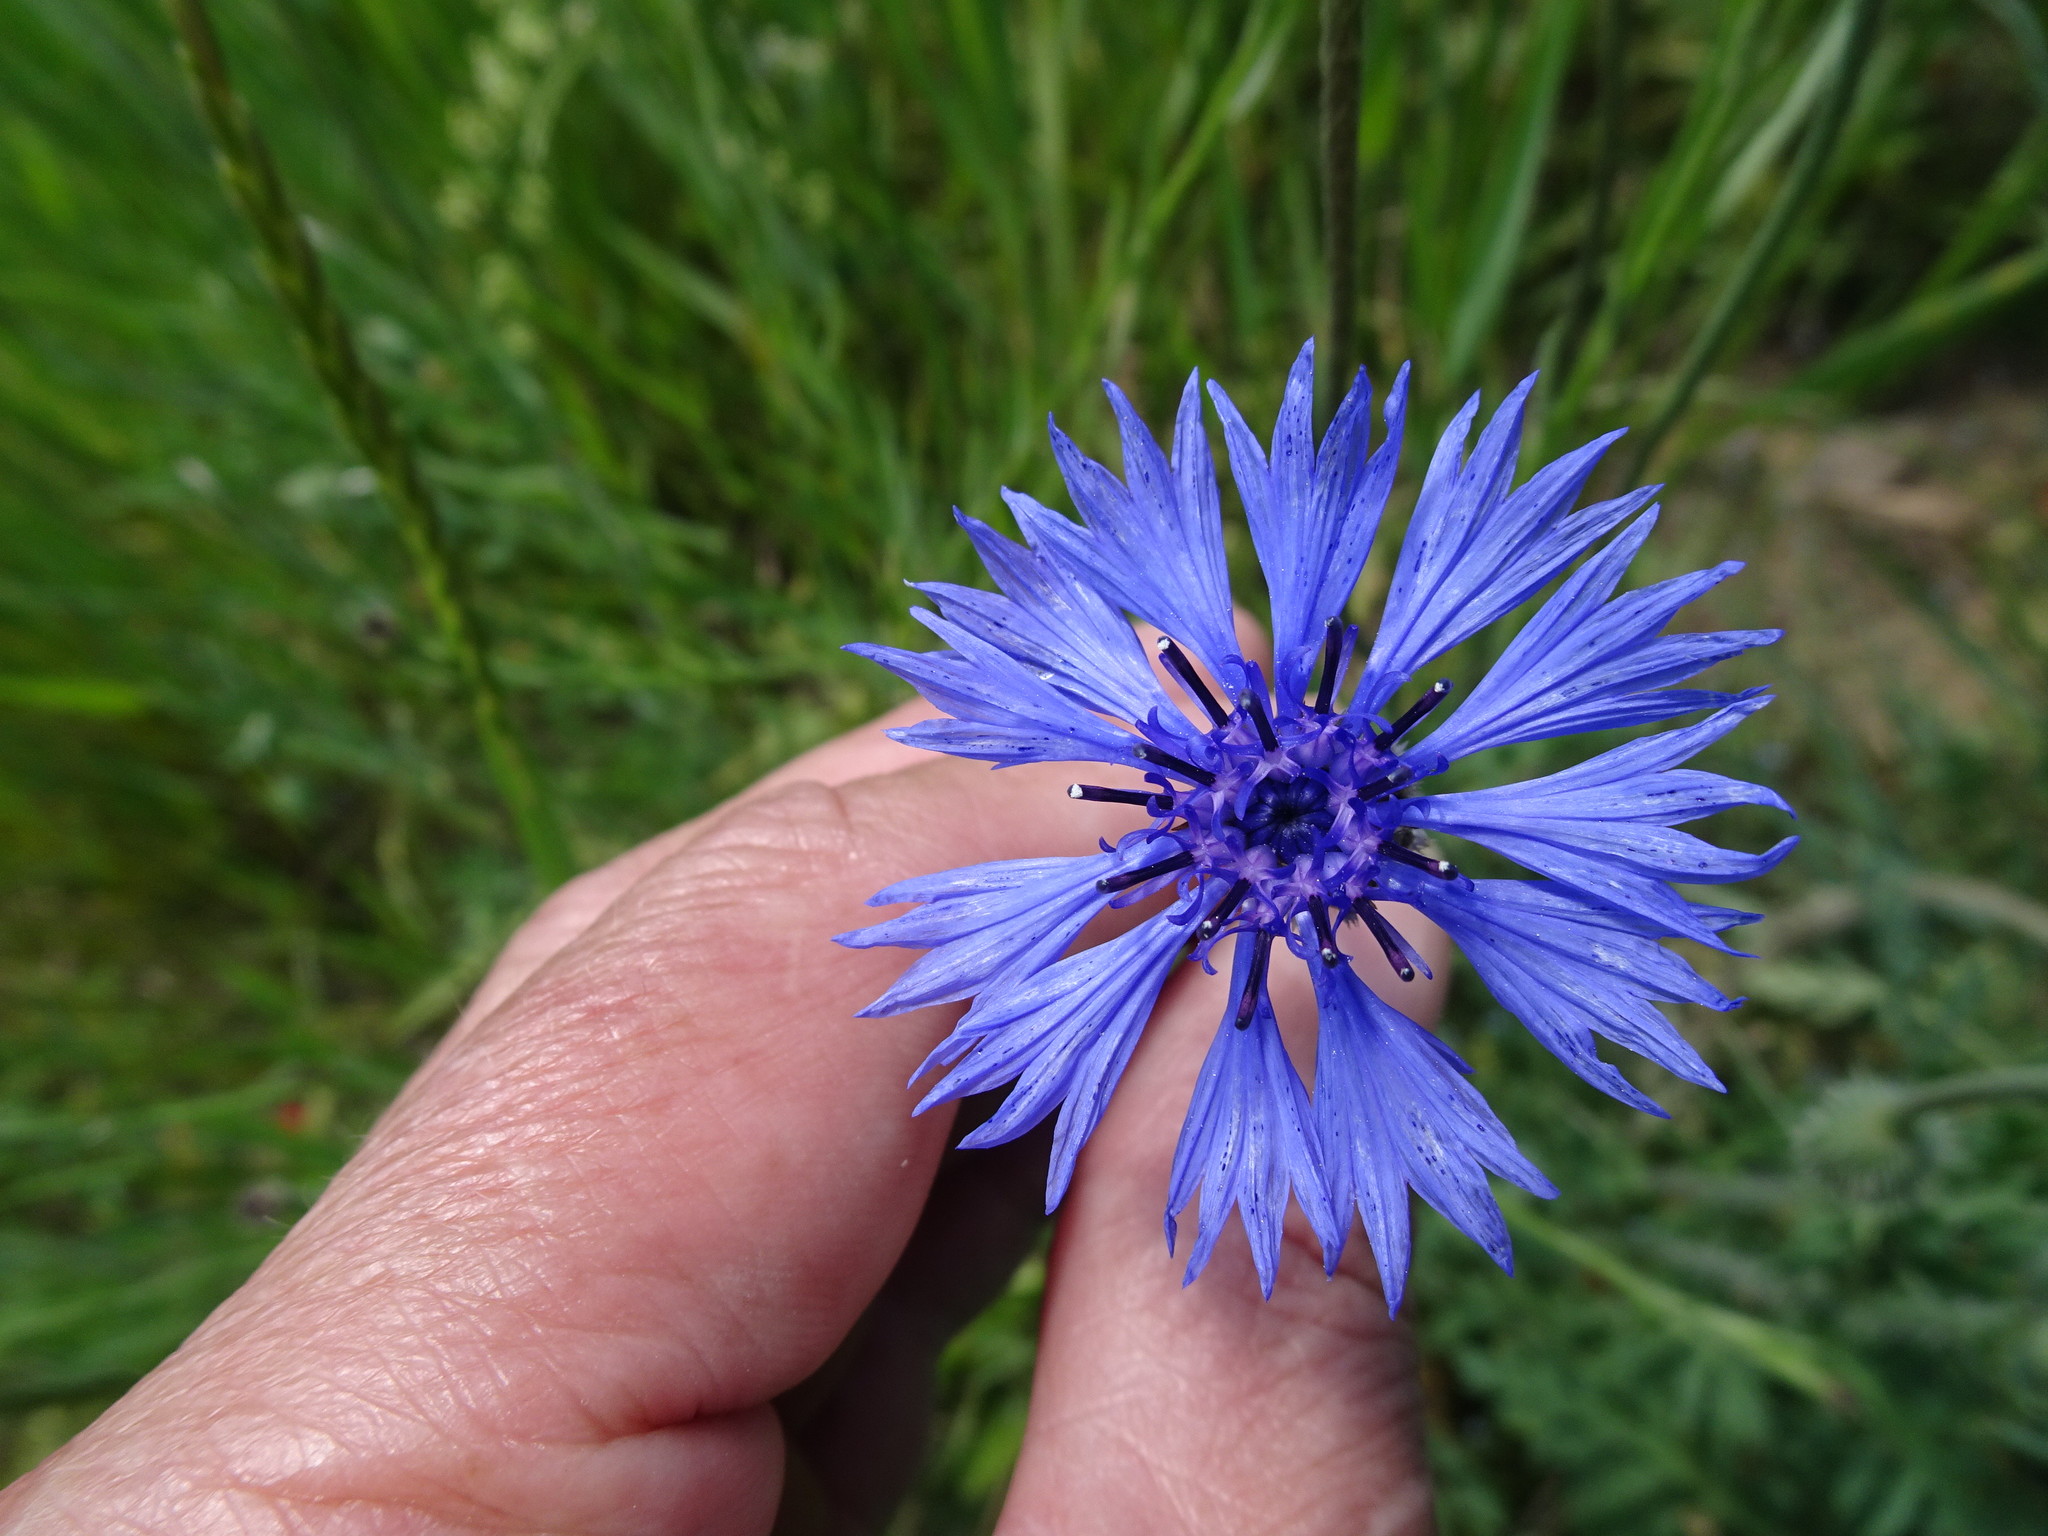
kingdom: Plantae
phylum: Tracheophyta
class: Magnoliopsida
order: Asterales
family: Asteraceae
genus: Centaurea
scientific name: Centaurea cyanus
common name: Cornflower
